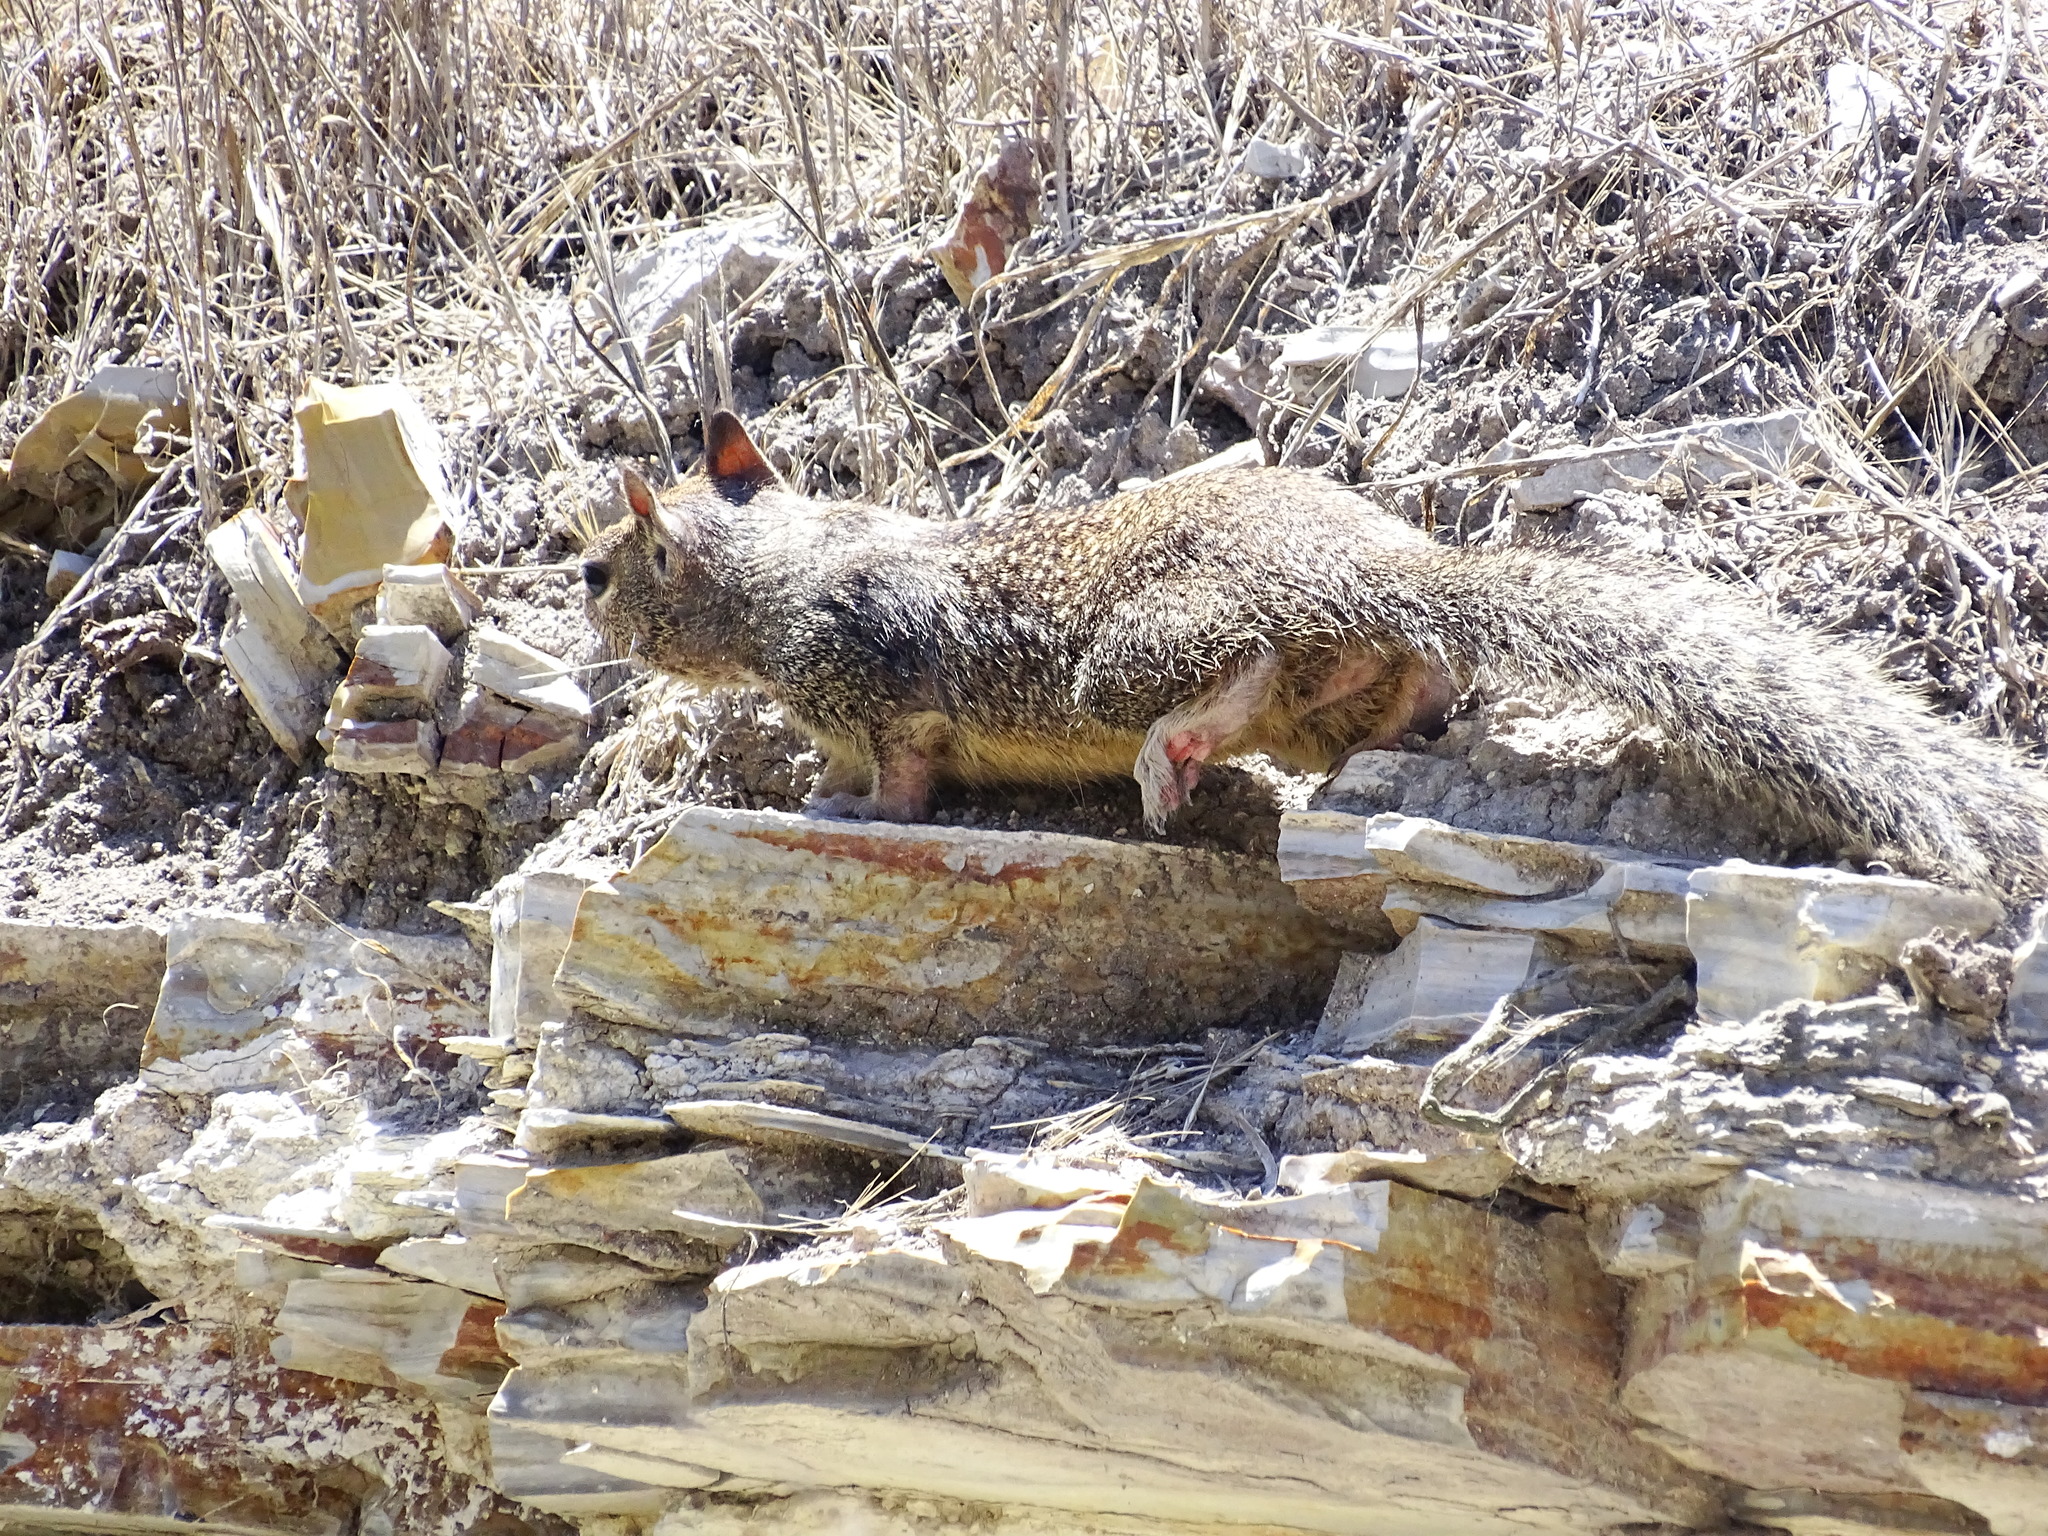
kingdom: Animalia
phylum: Chordata
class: Mammalia
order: Rodentia
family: Sciuridae
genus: Otospermophilus
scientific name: Otospermophilus beecheyi
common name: California ground squirrel
